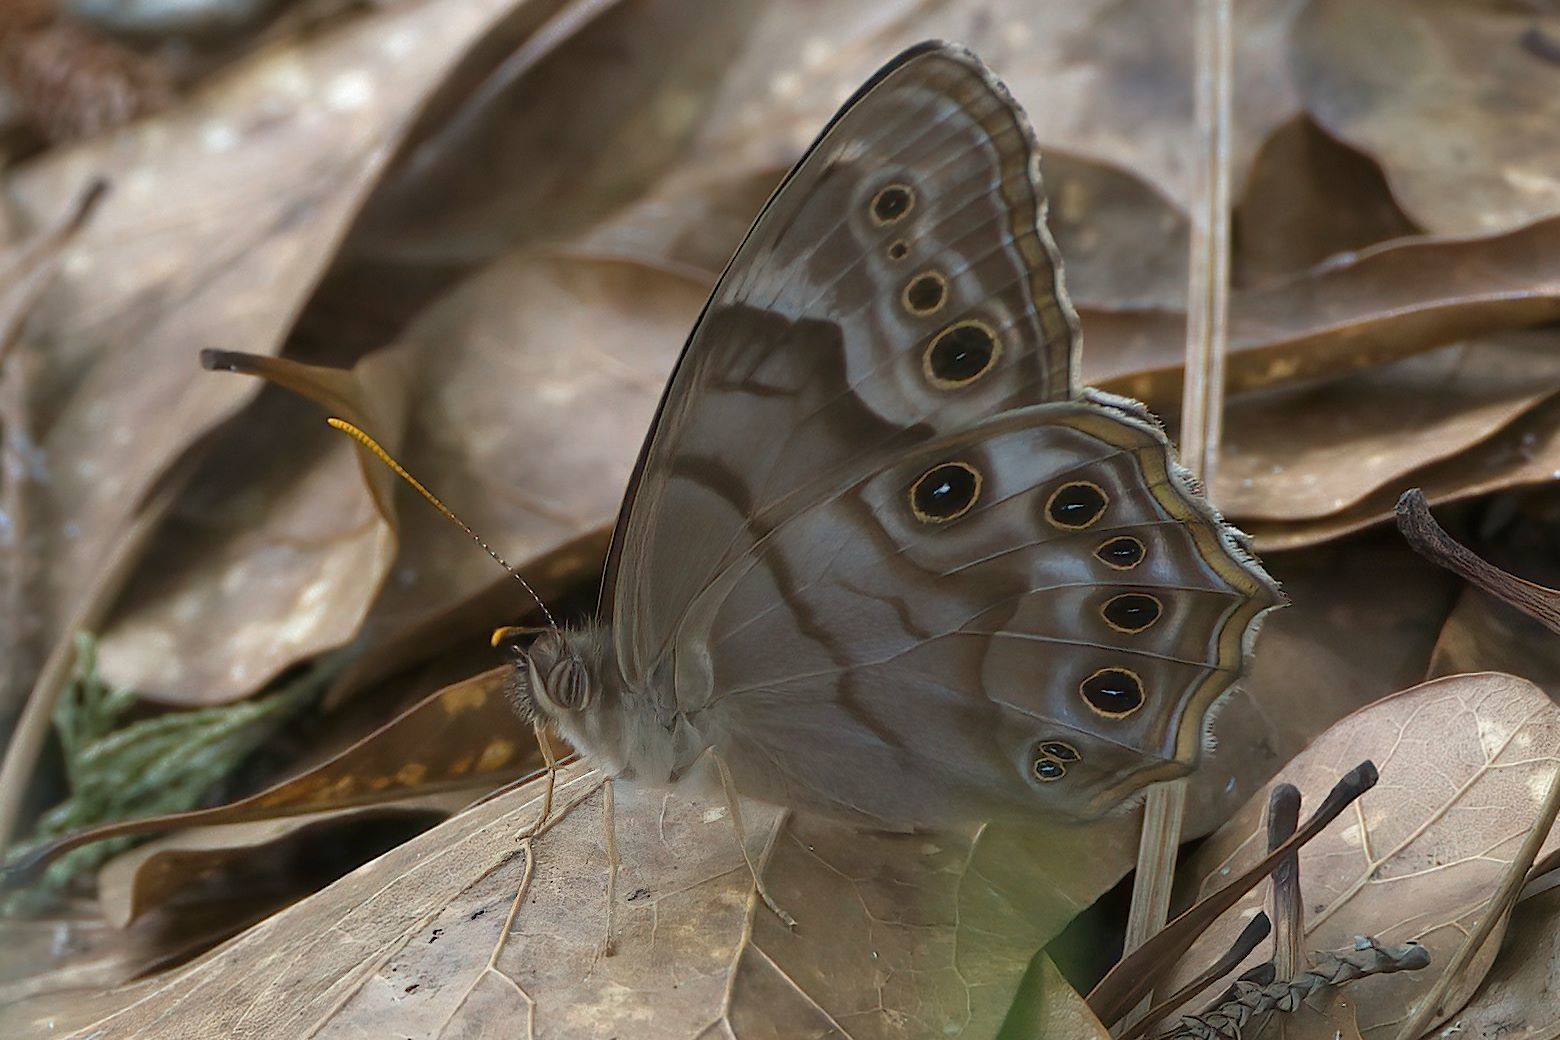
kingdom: Animalia
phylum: Arthropoda
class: Insecta
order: Lepidoptera
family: Nymphalidae
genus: Enodia
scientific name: Enodia portlandia
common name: Southern pearly-eye
